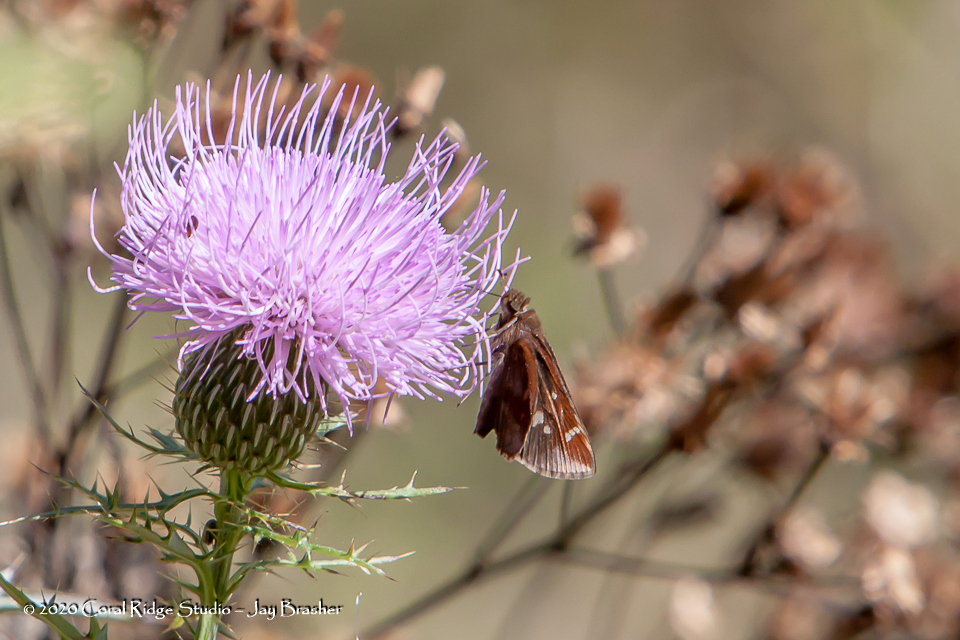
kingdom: Animalia
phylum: Arthropoda
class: Insecta
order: Lepidoptera
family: Hesperiidae
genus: Lon
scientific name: Lon zabulon
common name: Zabulon skipper
